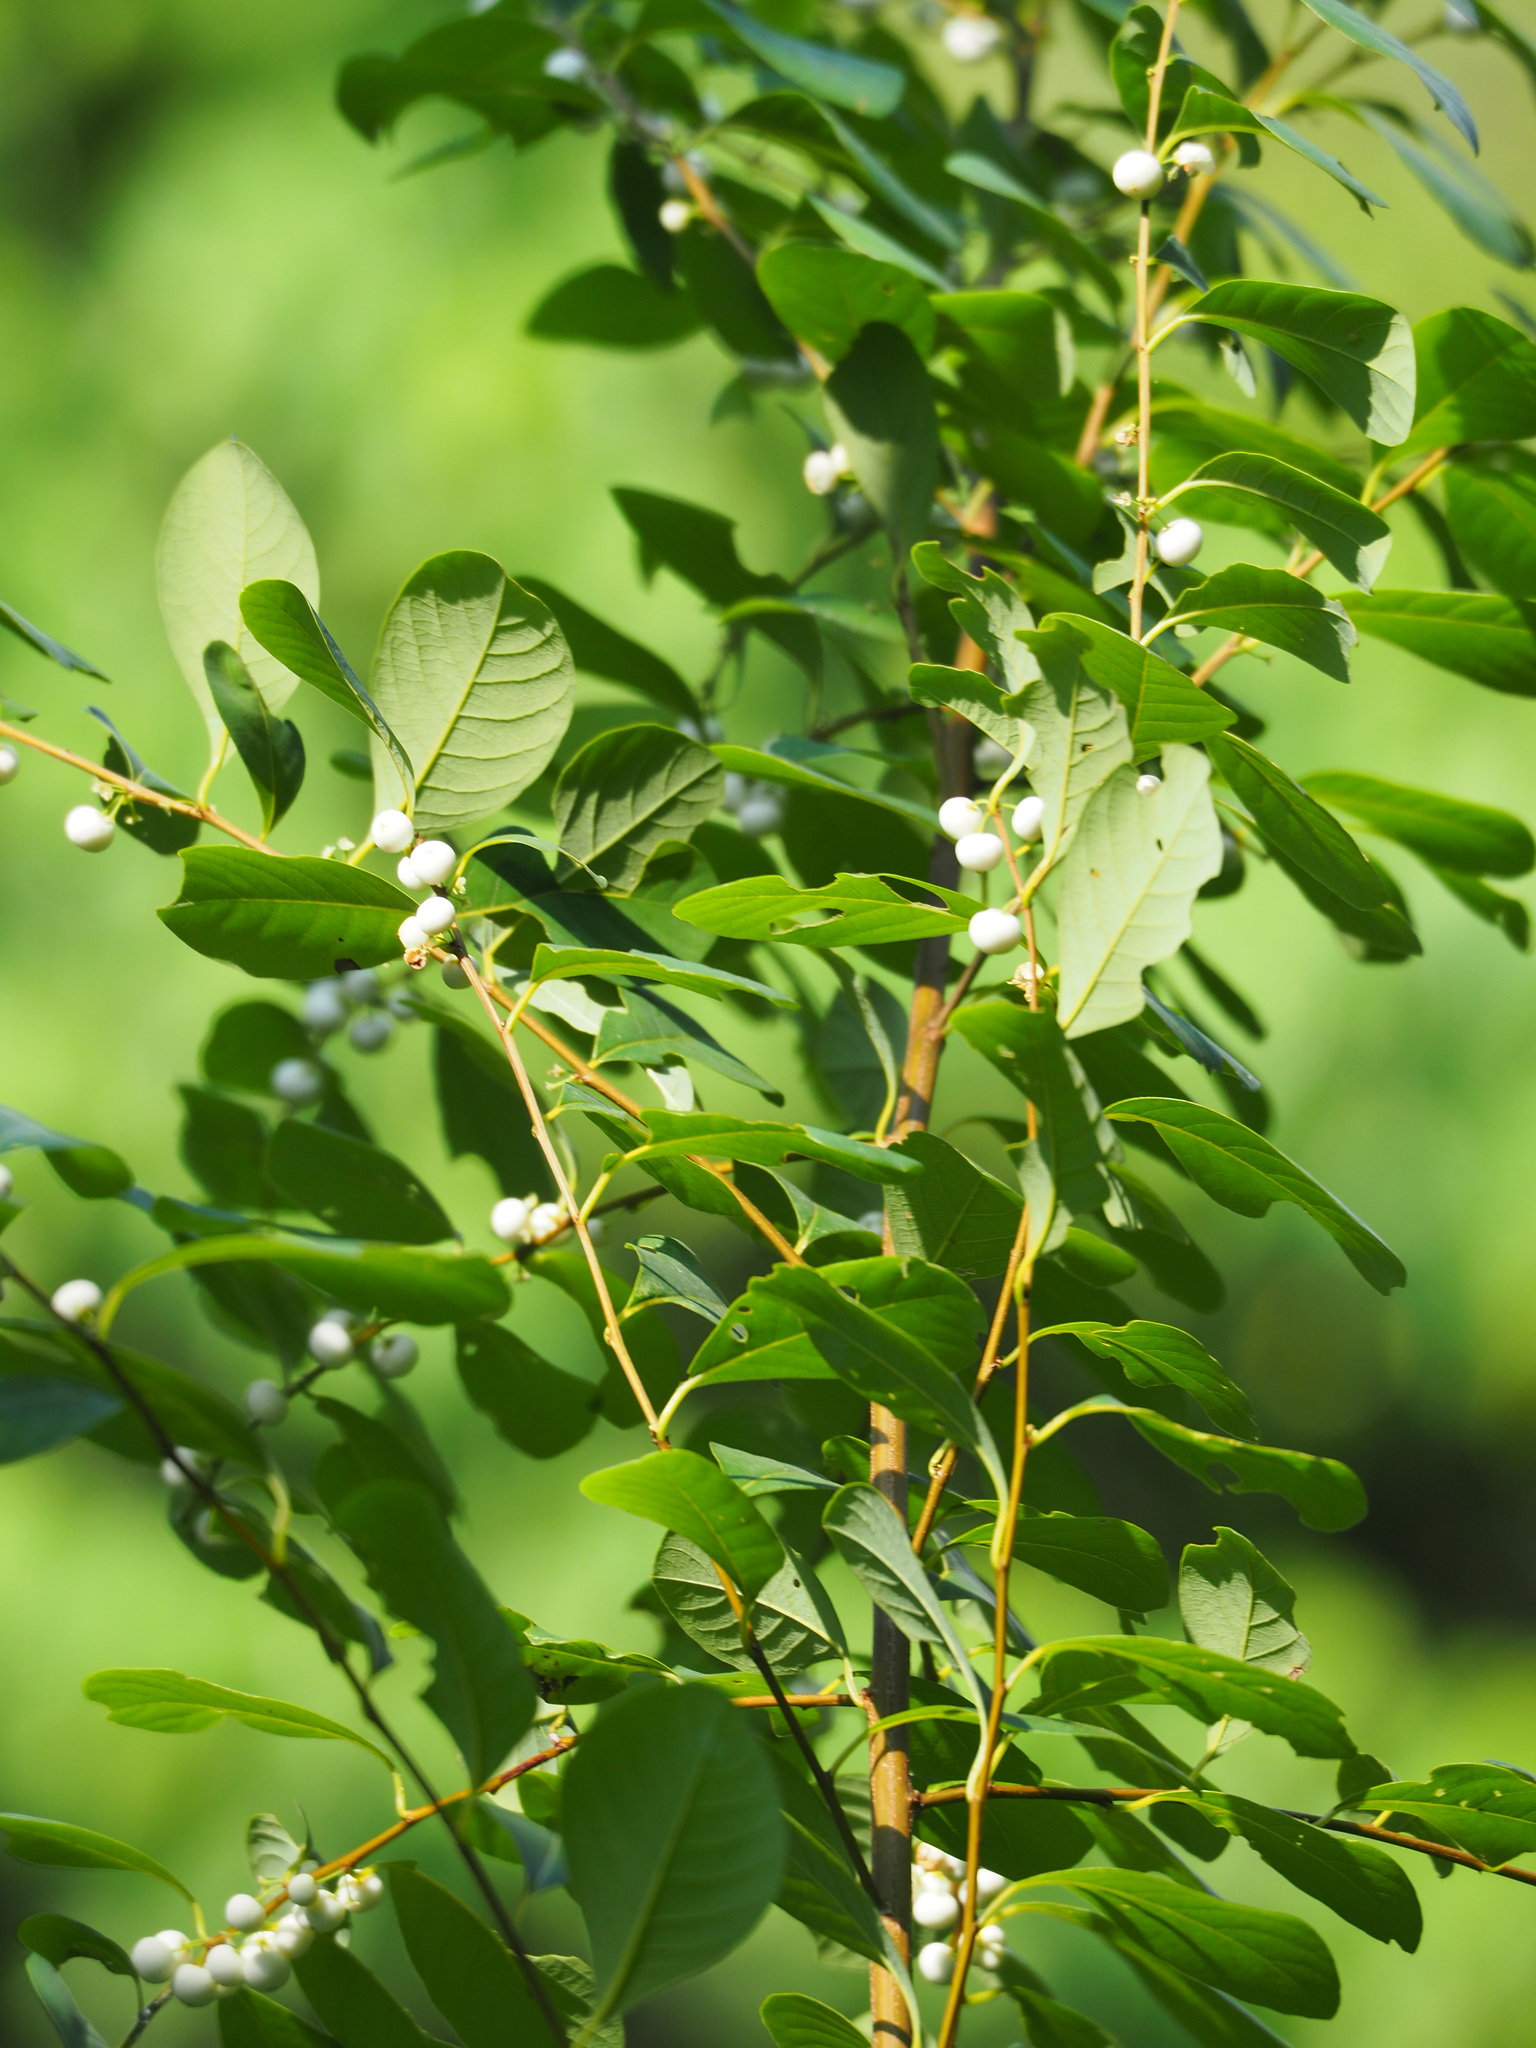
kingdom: Plantae
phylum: Tracheophyta
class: Magnoliopsida
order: Malpighiales
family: Phyllanthaceae
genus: Flueggea
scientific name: Flueggea virosa
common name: Common bushweed
